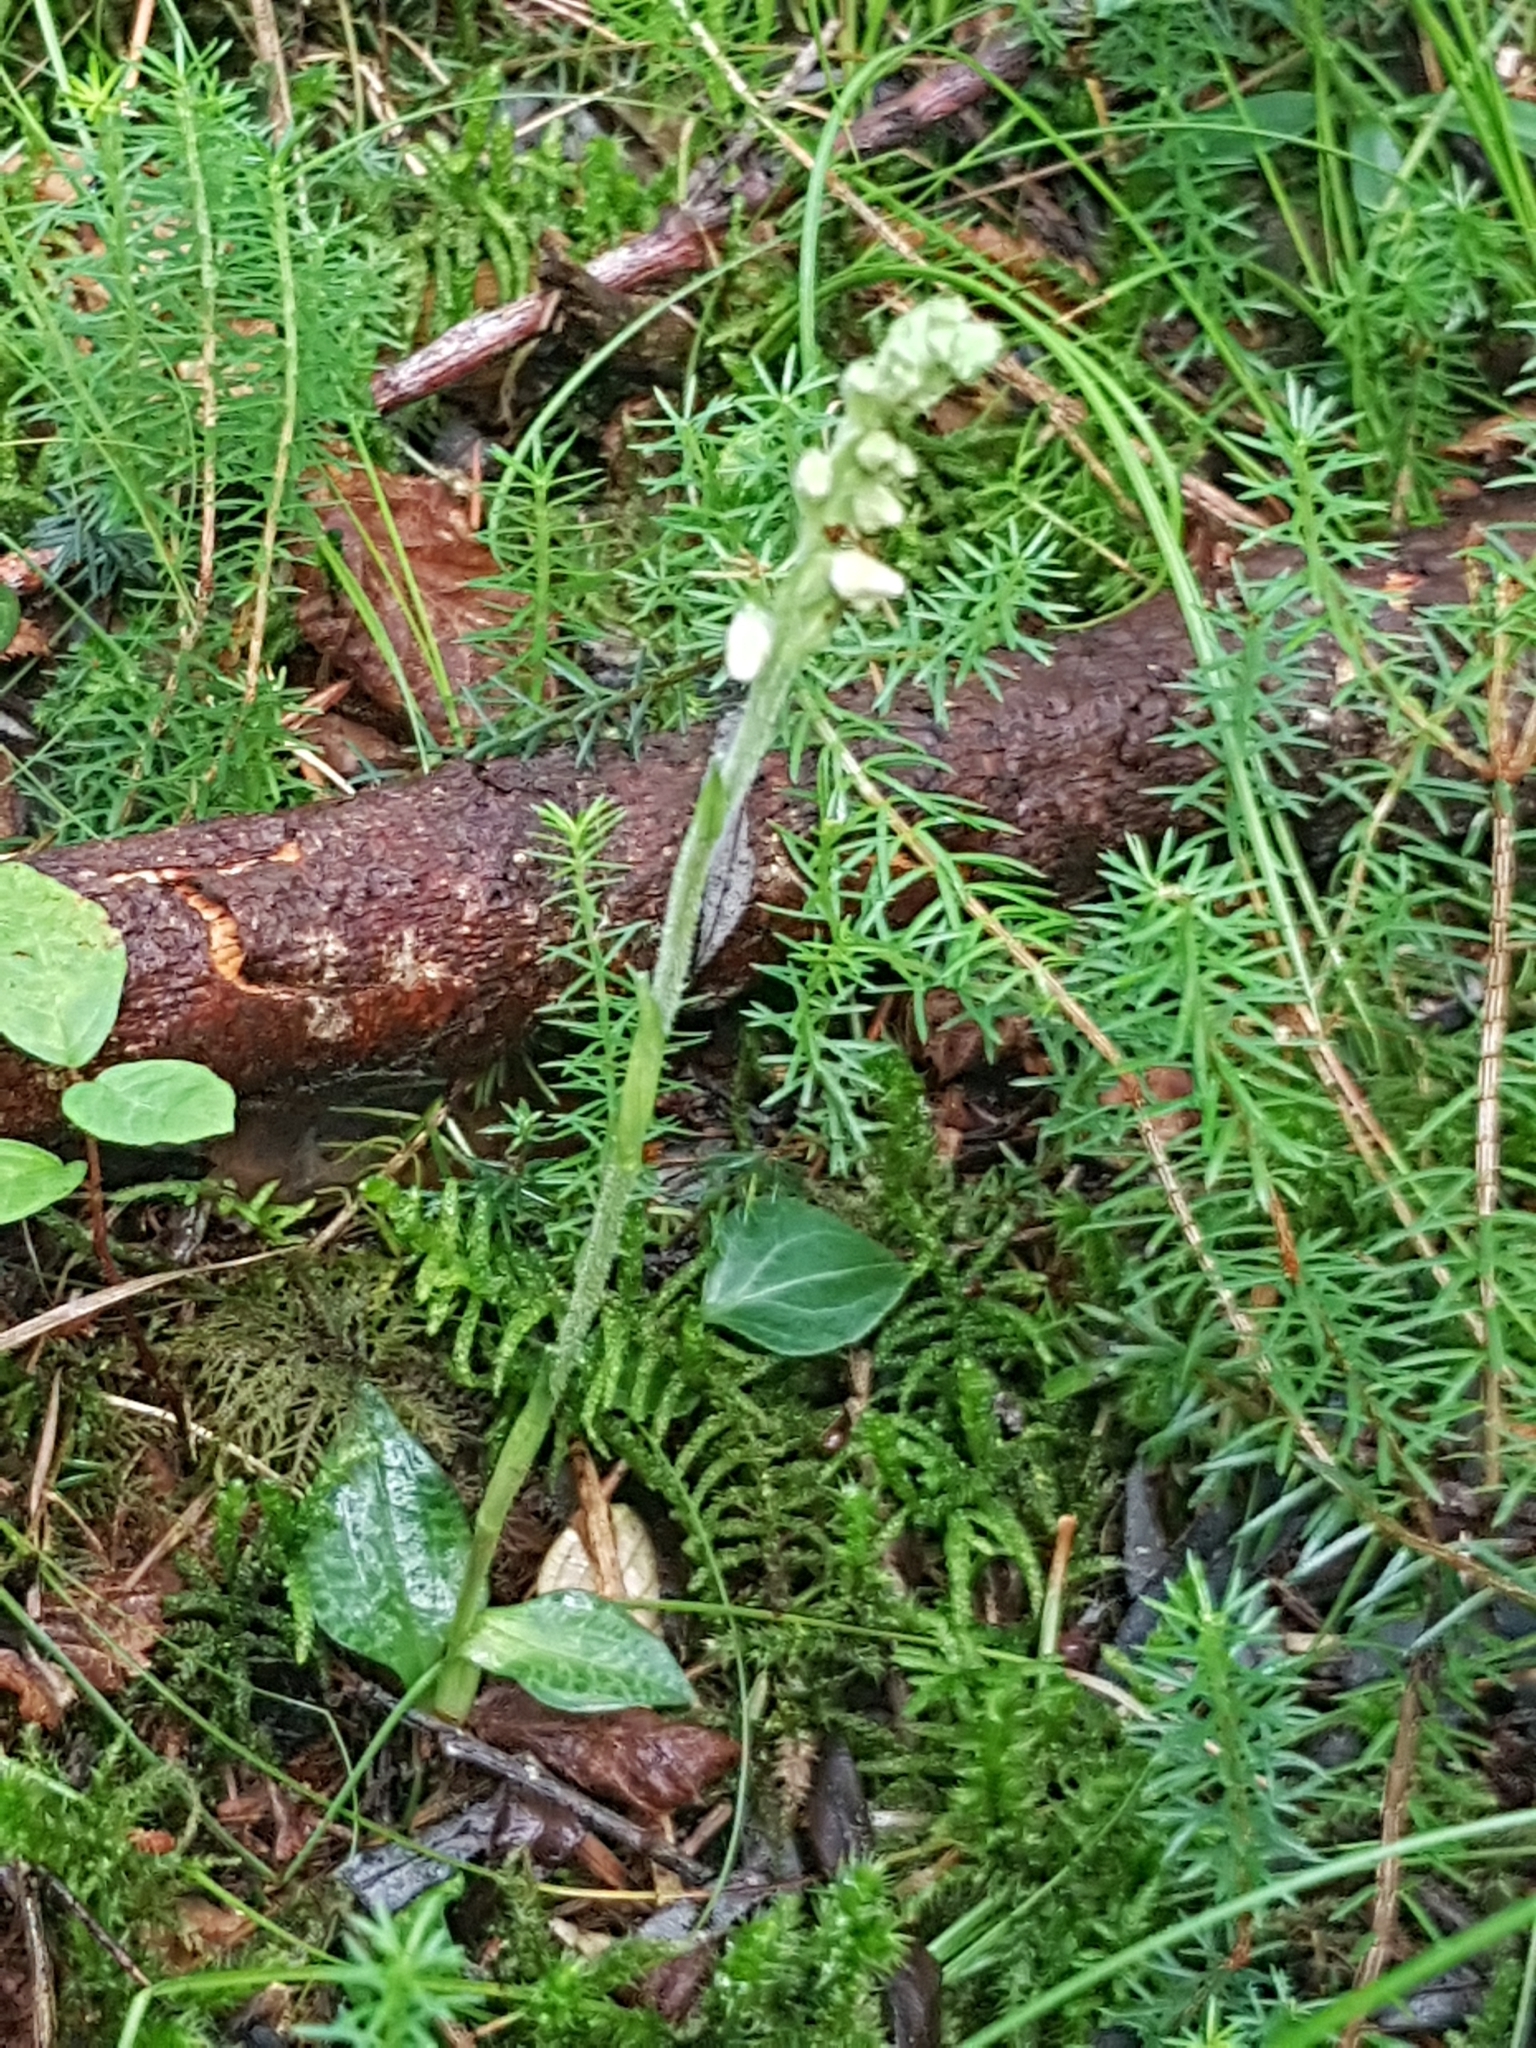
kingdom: Plantae
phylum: Tracheophyta
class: Liliopsida
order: Asparagales
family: Orchidaceae
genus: Goodyera
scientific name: Goodyera repens
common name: Creeping lady's-tresses
